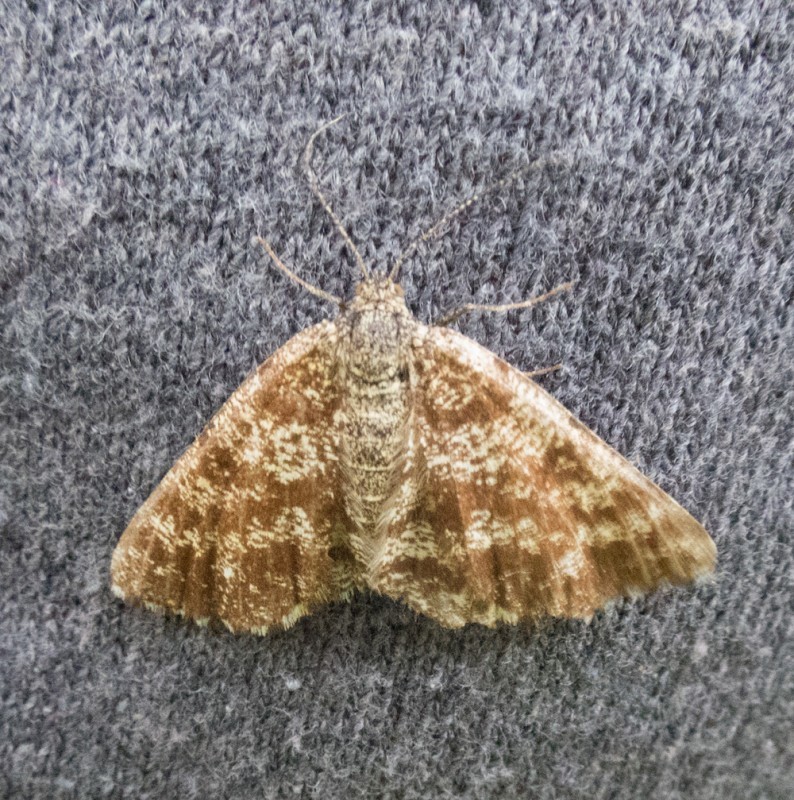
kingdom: Animalia
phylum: Arthropoda
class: Insecta
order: Lepidoptera
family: Geometridae
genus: Ematurga
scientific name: Ematurga atomaria
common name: Common heath
